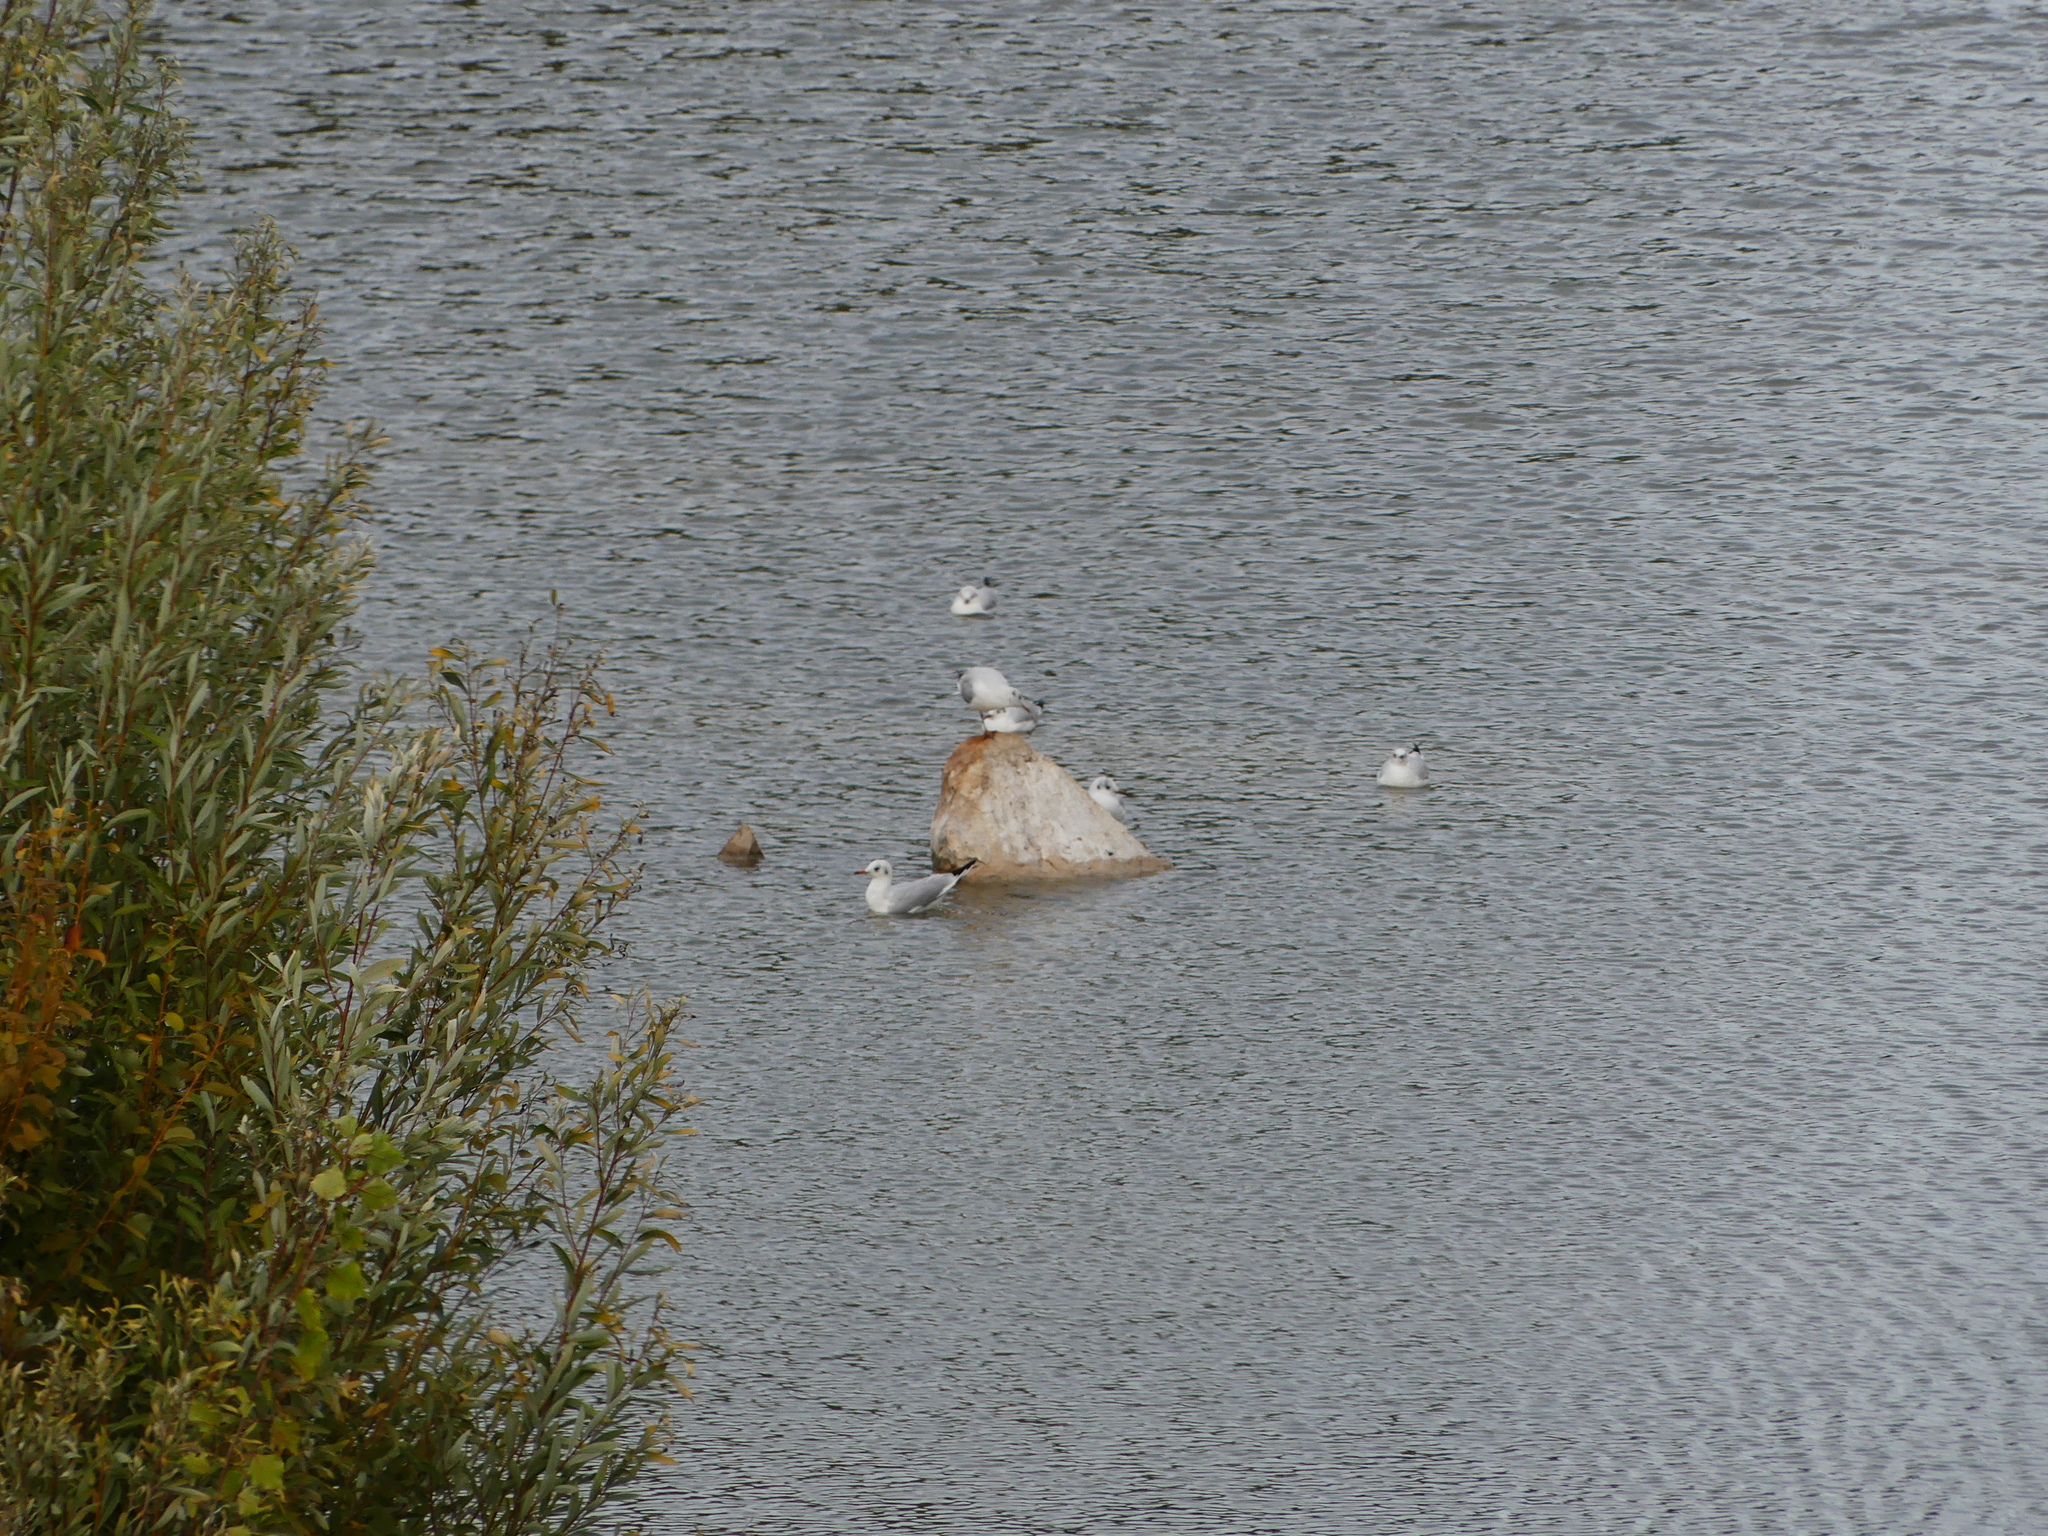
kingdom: Animalia
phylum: Chordata
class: Aves
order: Charadriiformes
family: Laridae
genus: Chroicocephalus
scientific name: Chroicocephalus ridibundus
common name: Black-headed gull
